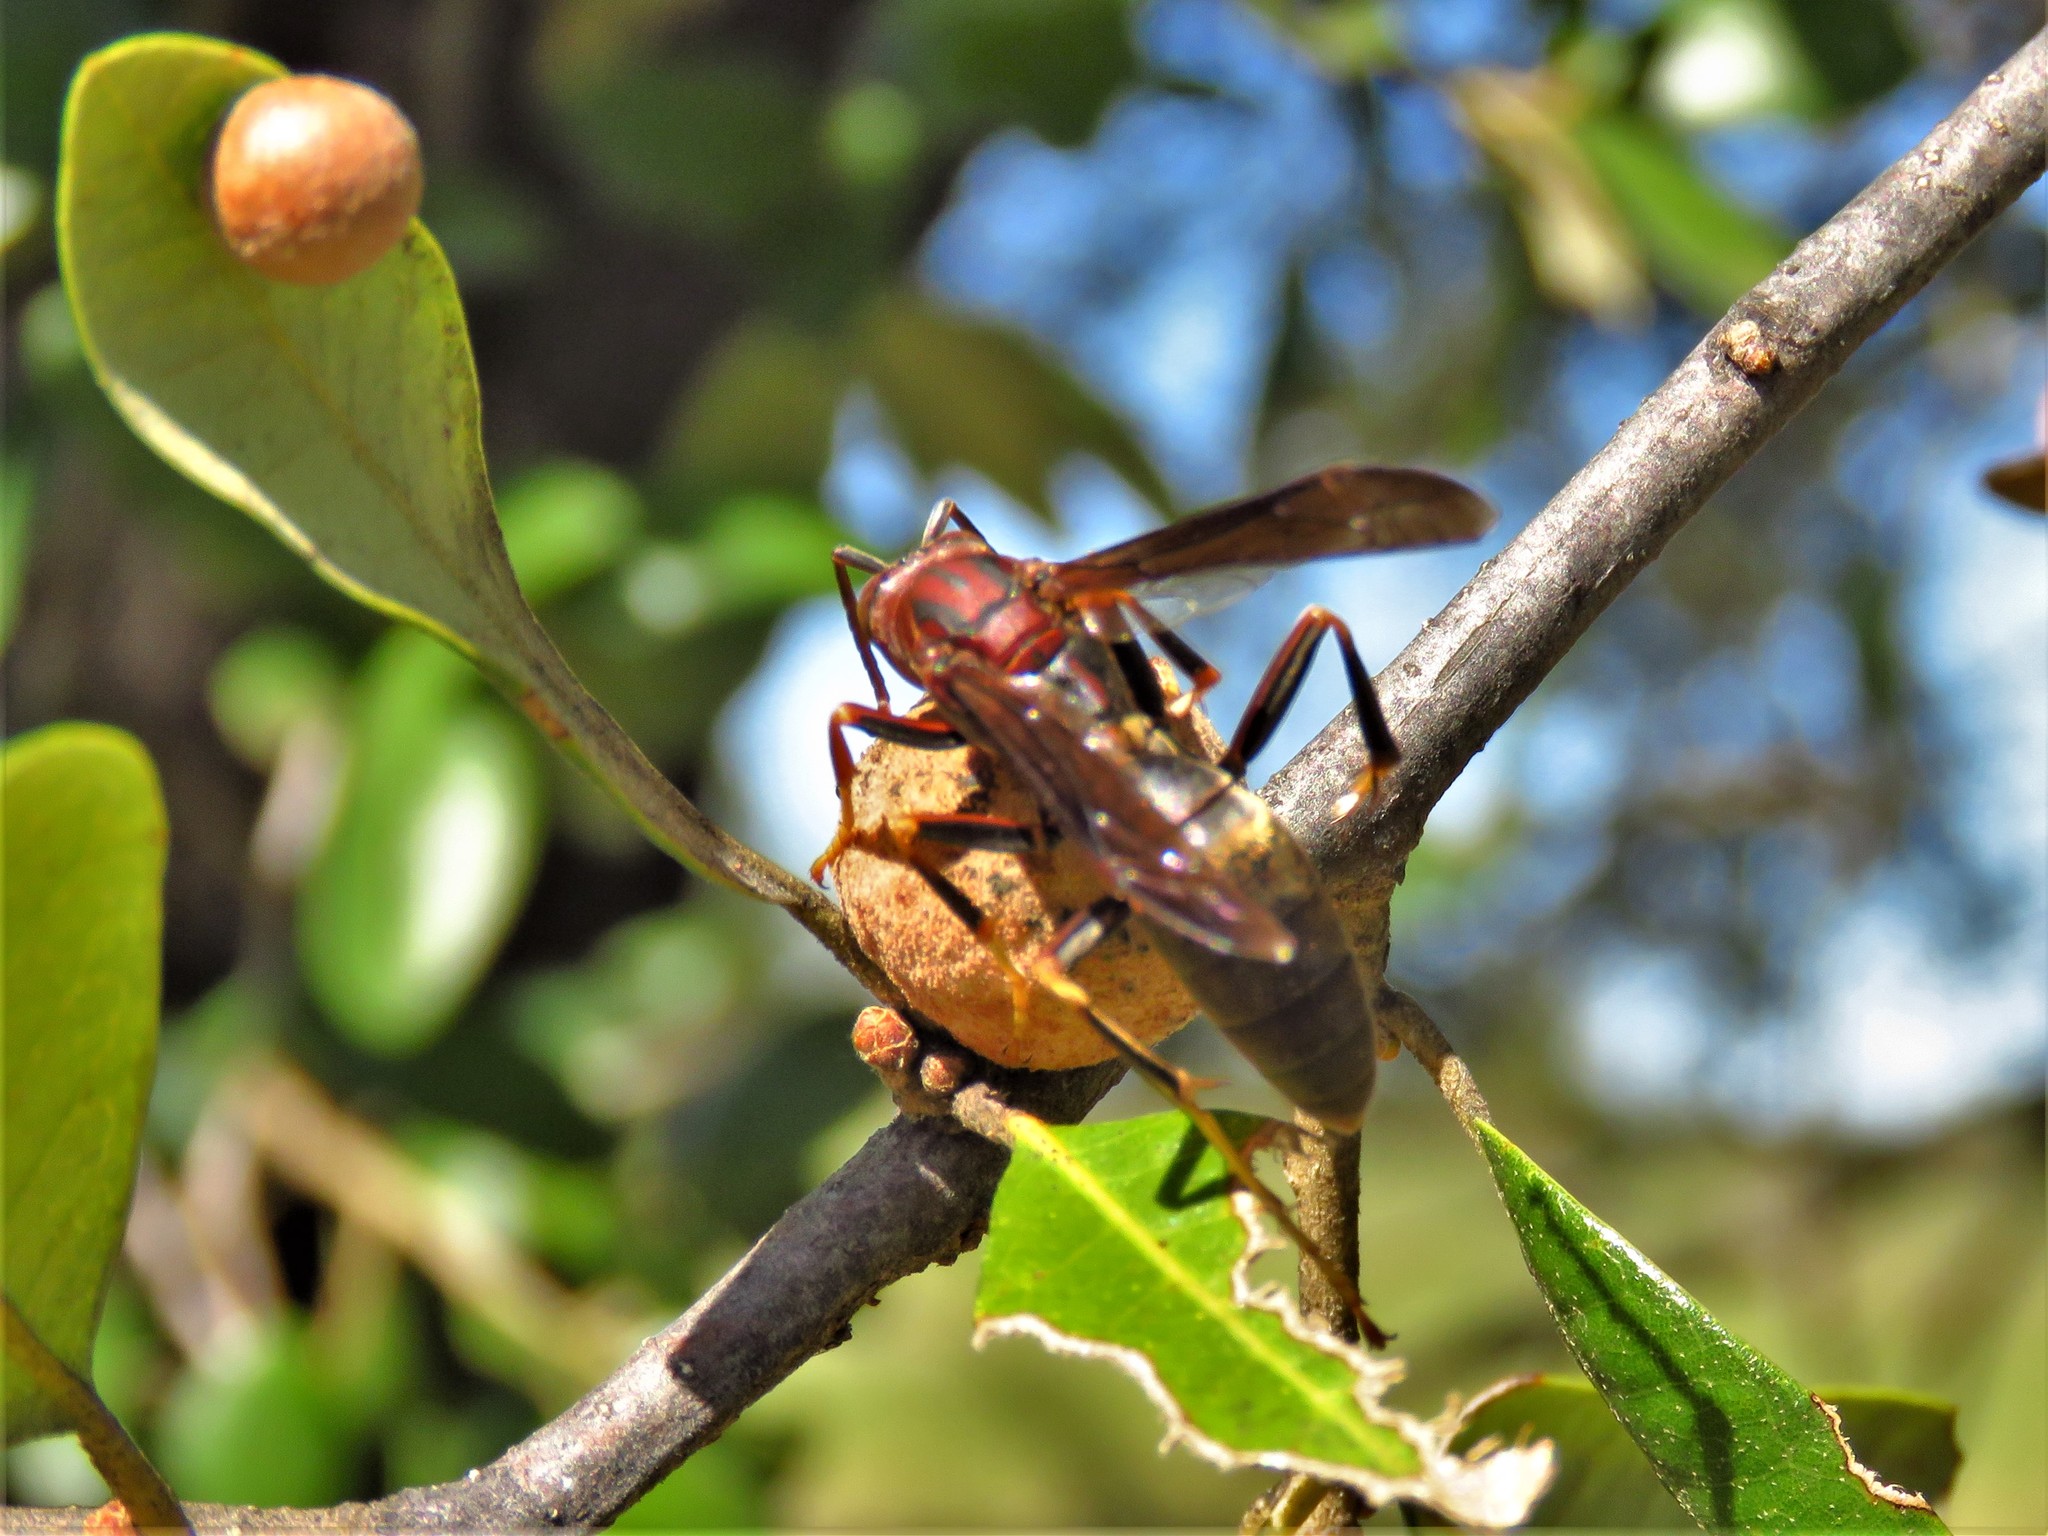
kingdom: Animalia
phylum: Arthropoda
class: Insecta
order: Hymenoptera
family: Eumenidae
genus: Polistes
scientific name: Polistes metricus
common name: Metric paper wasp
